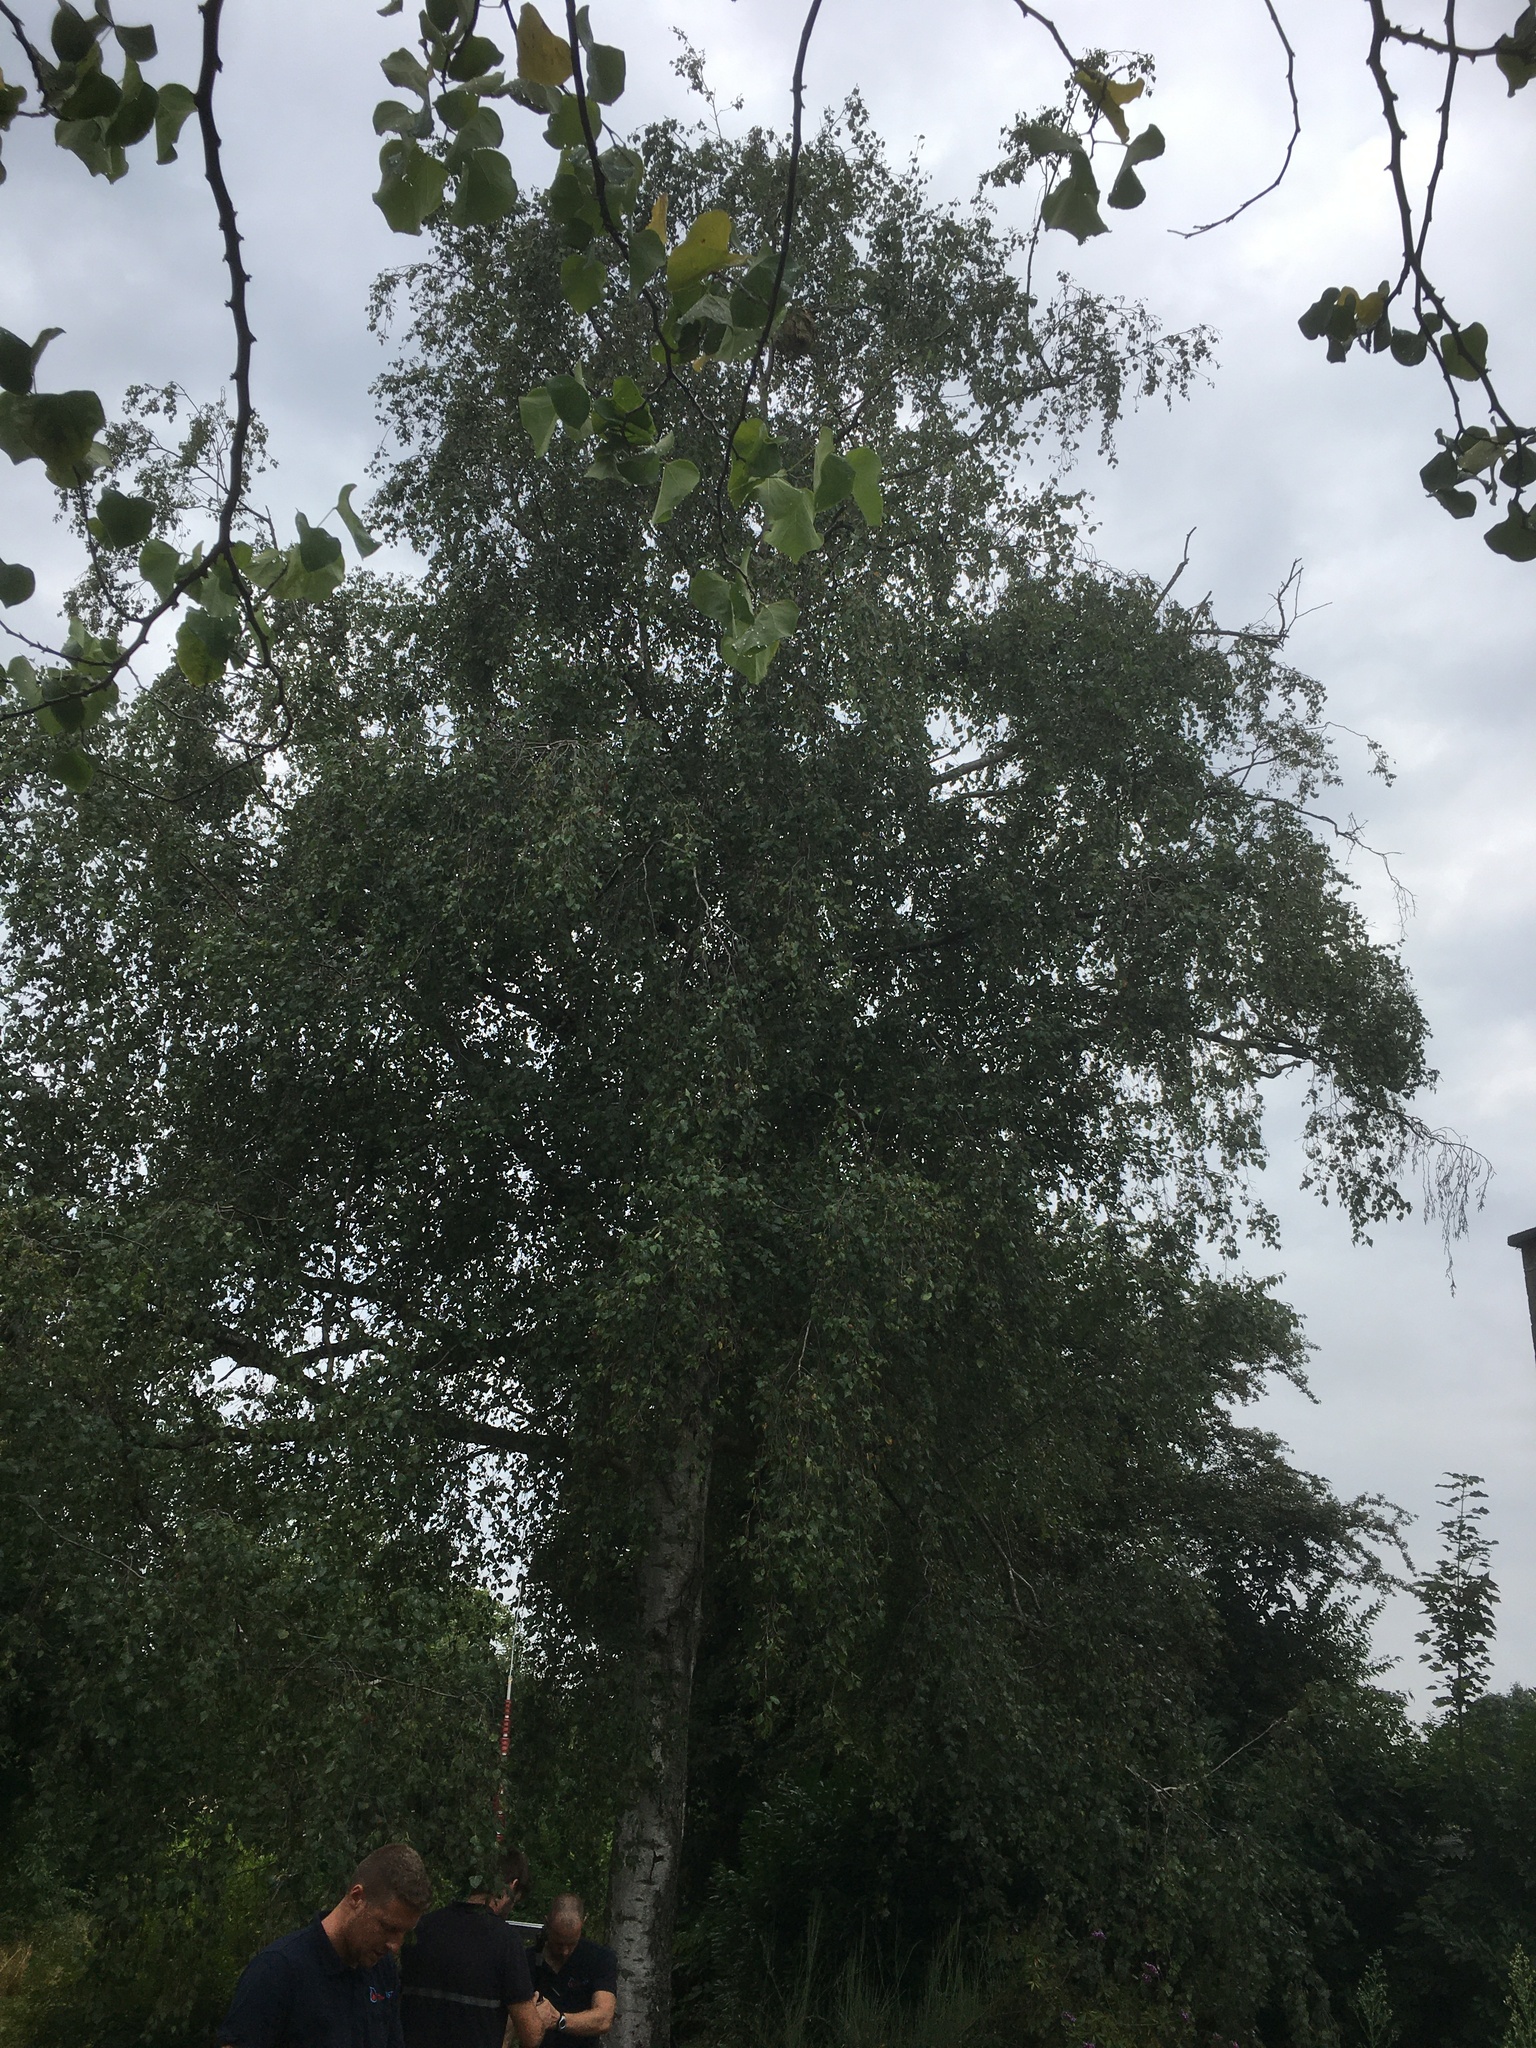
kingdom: Animalia
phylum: Arthropoda
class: Insecta
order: Hymenoptera
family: Vespidae
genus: Vespa
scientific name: Vespa velutina
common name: Asian hornet
